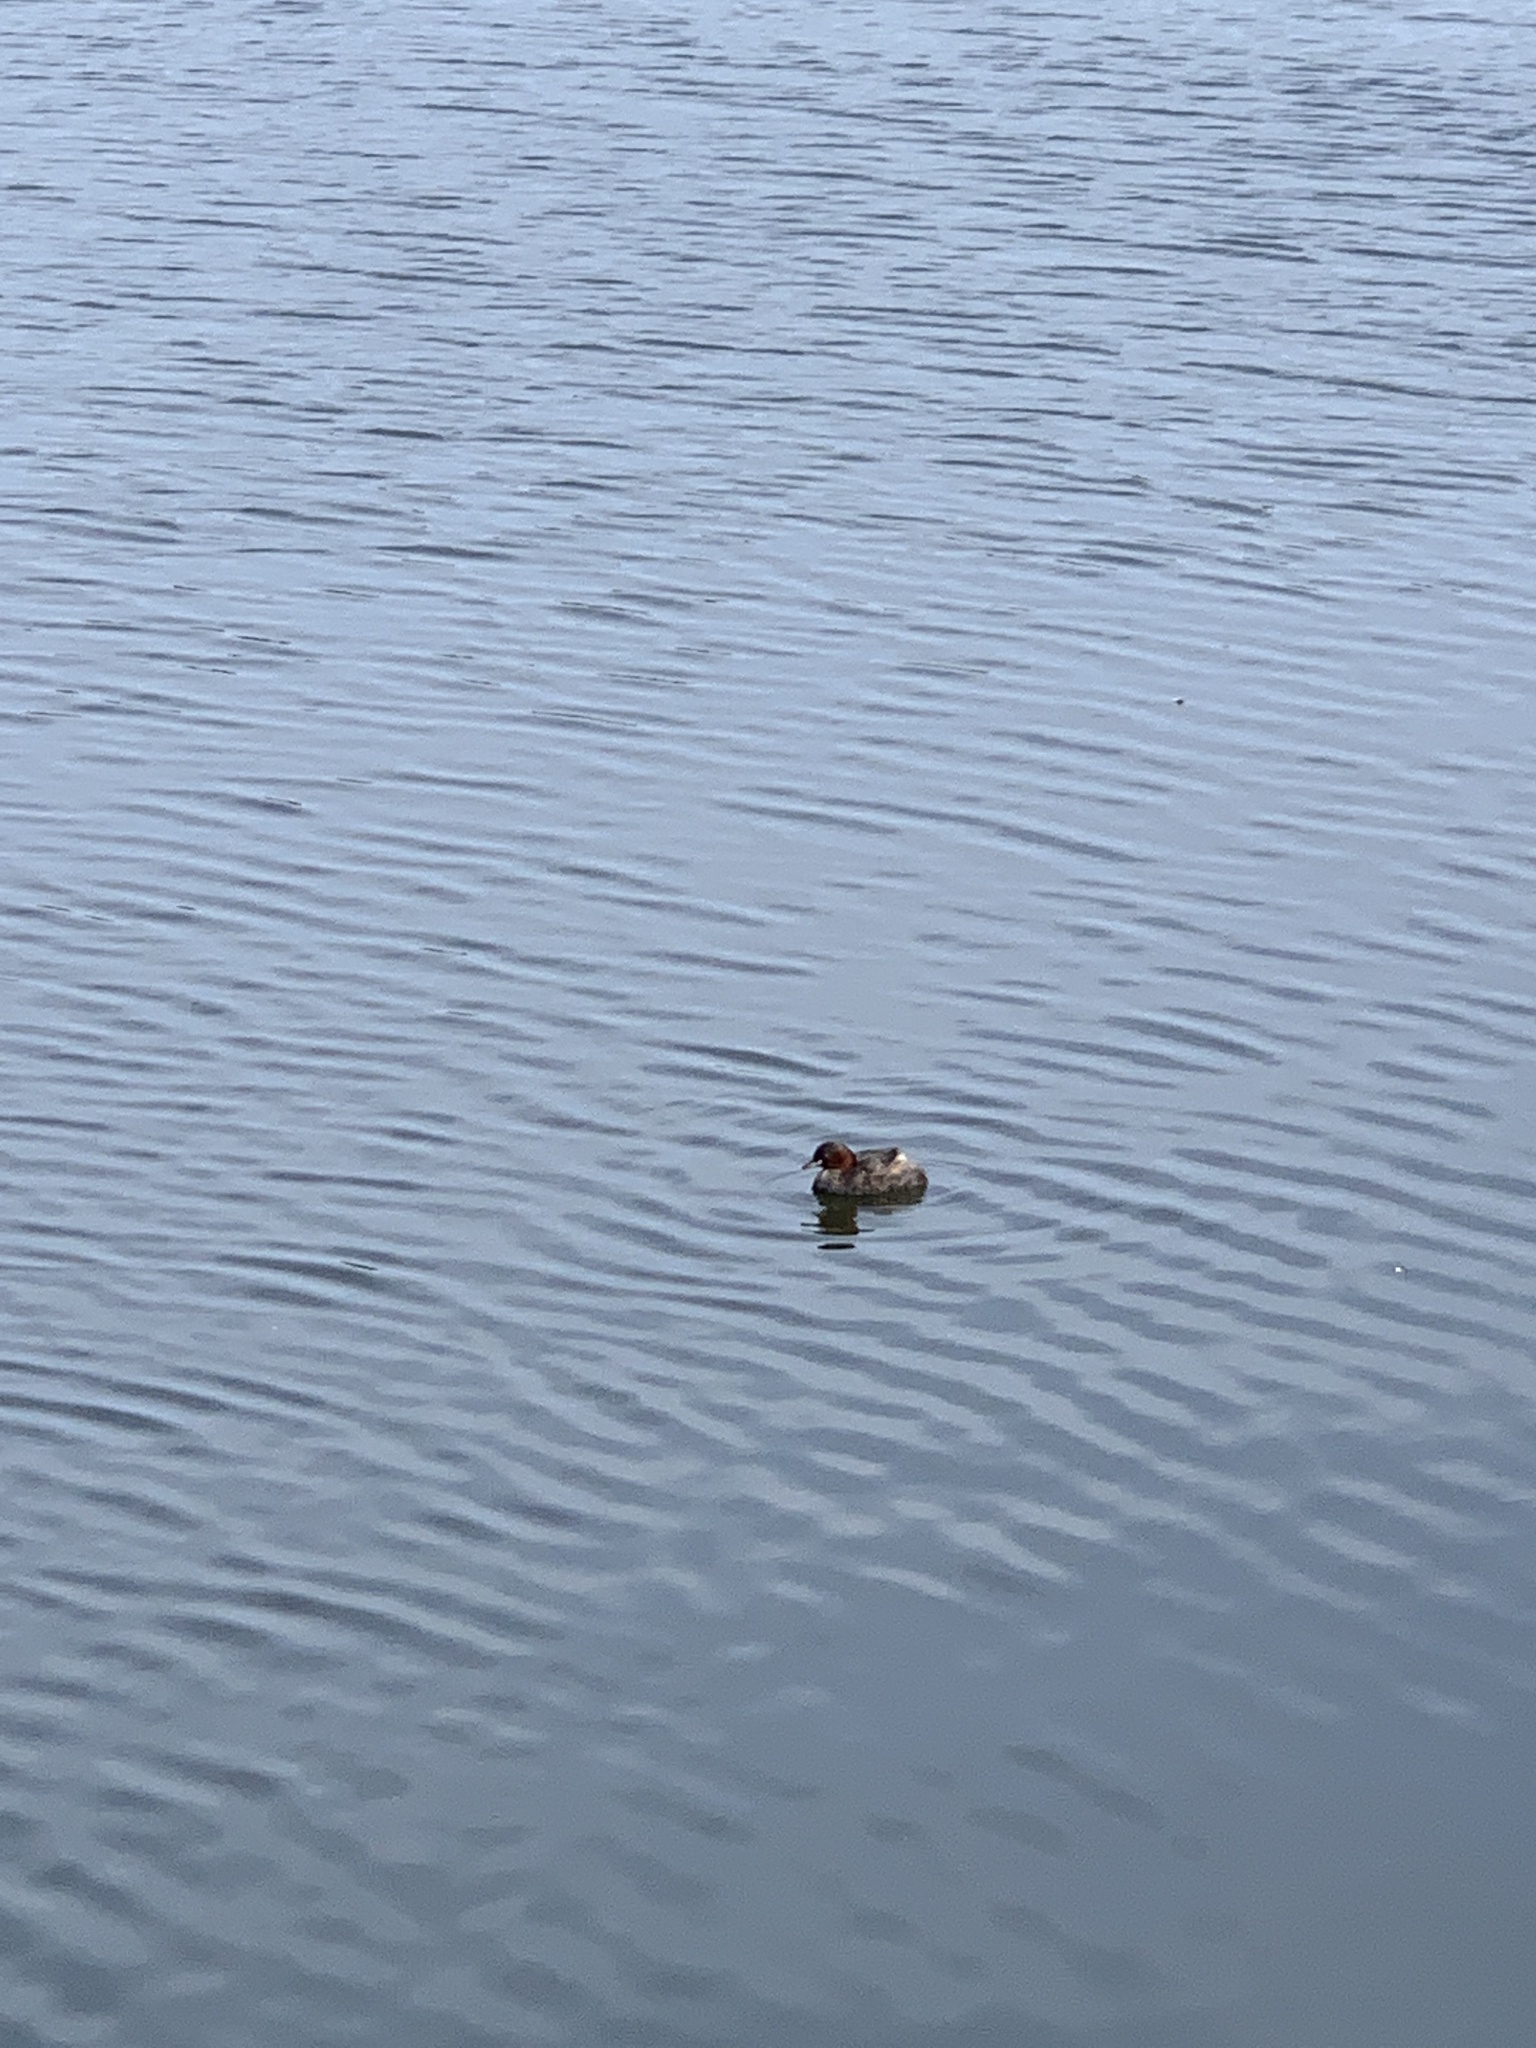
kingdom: Animalia
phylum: Chordata
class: Aves
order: Podicipediformes
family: Podicipedidae
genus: Tachybaptus
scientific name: Tachybaptus ruficollis
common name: Little grebe
